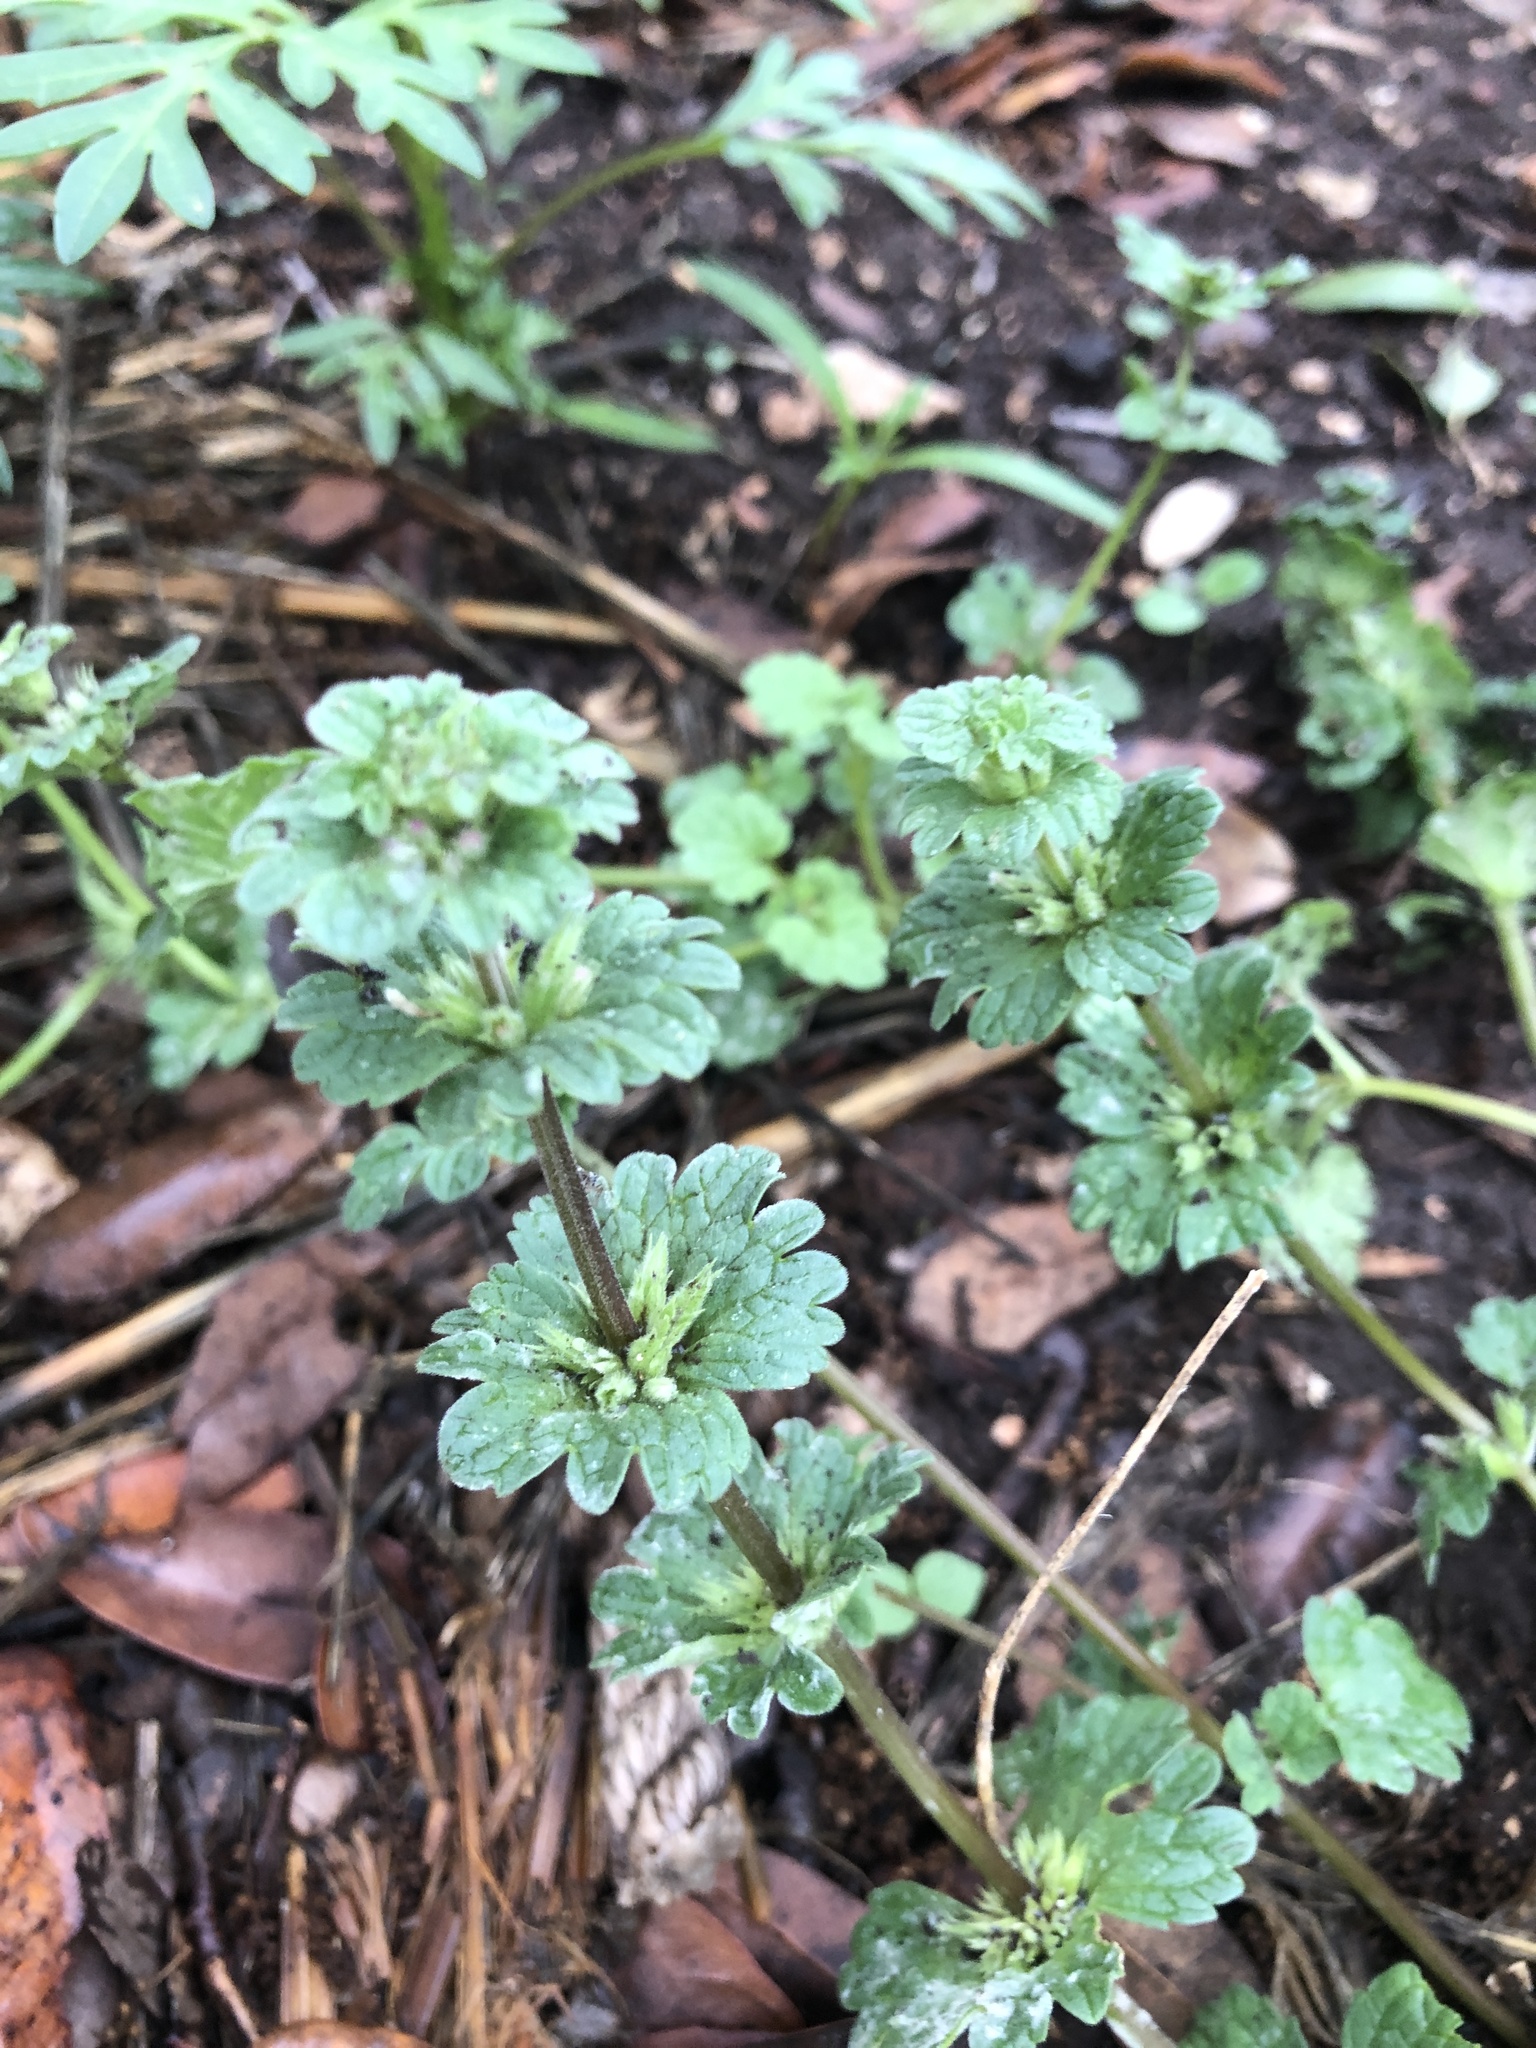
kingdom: Plantae
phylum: Tracheophyta
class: Magnoliopsida
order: Lamiales
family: Lamiaceae
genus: Lamium
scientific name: Lamium amplexicaule
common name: Henbit dead-nettle
